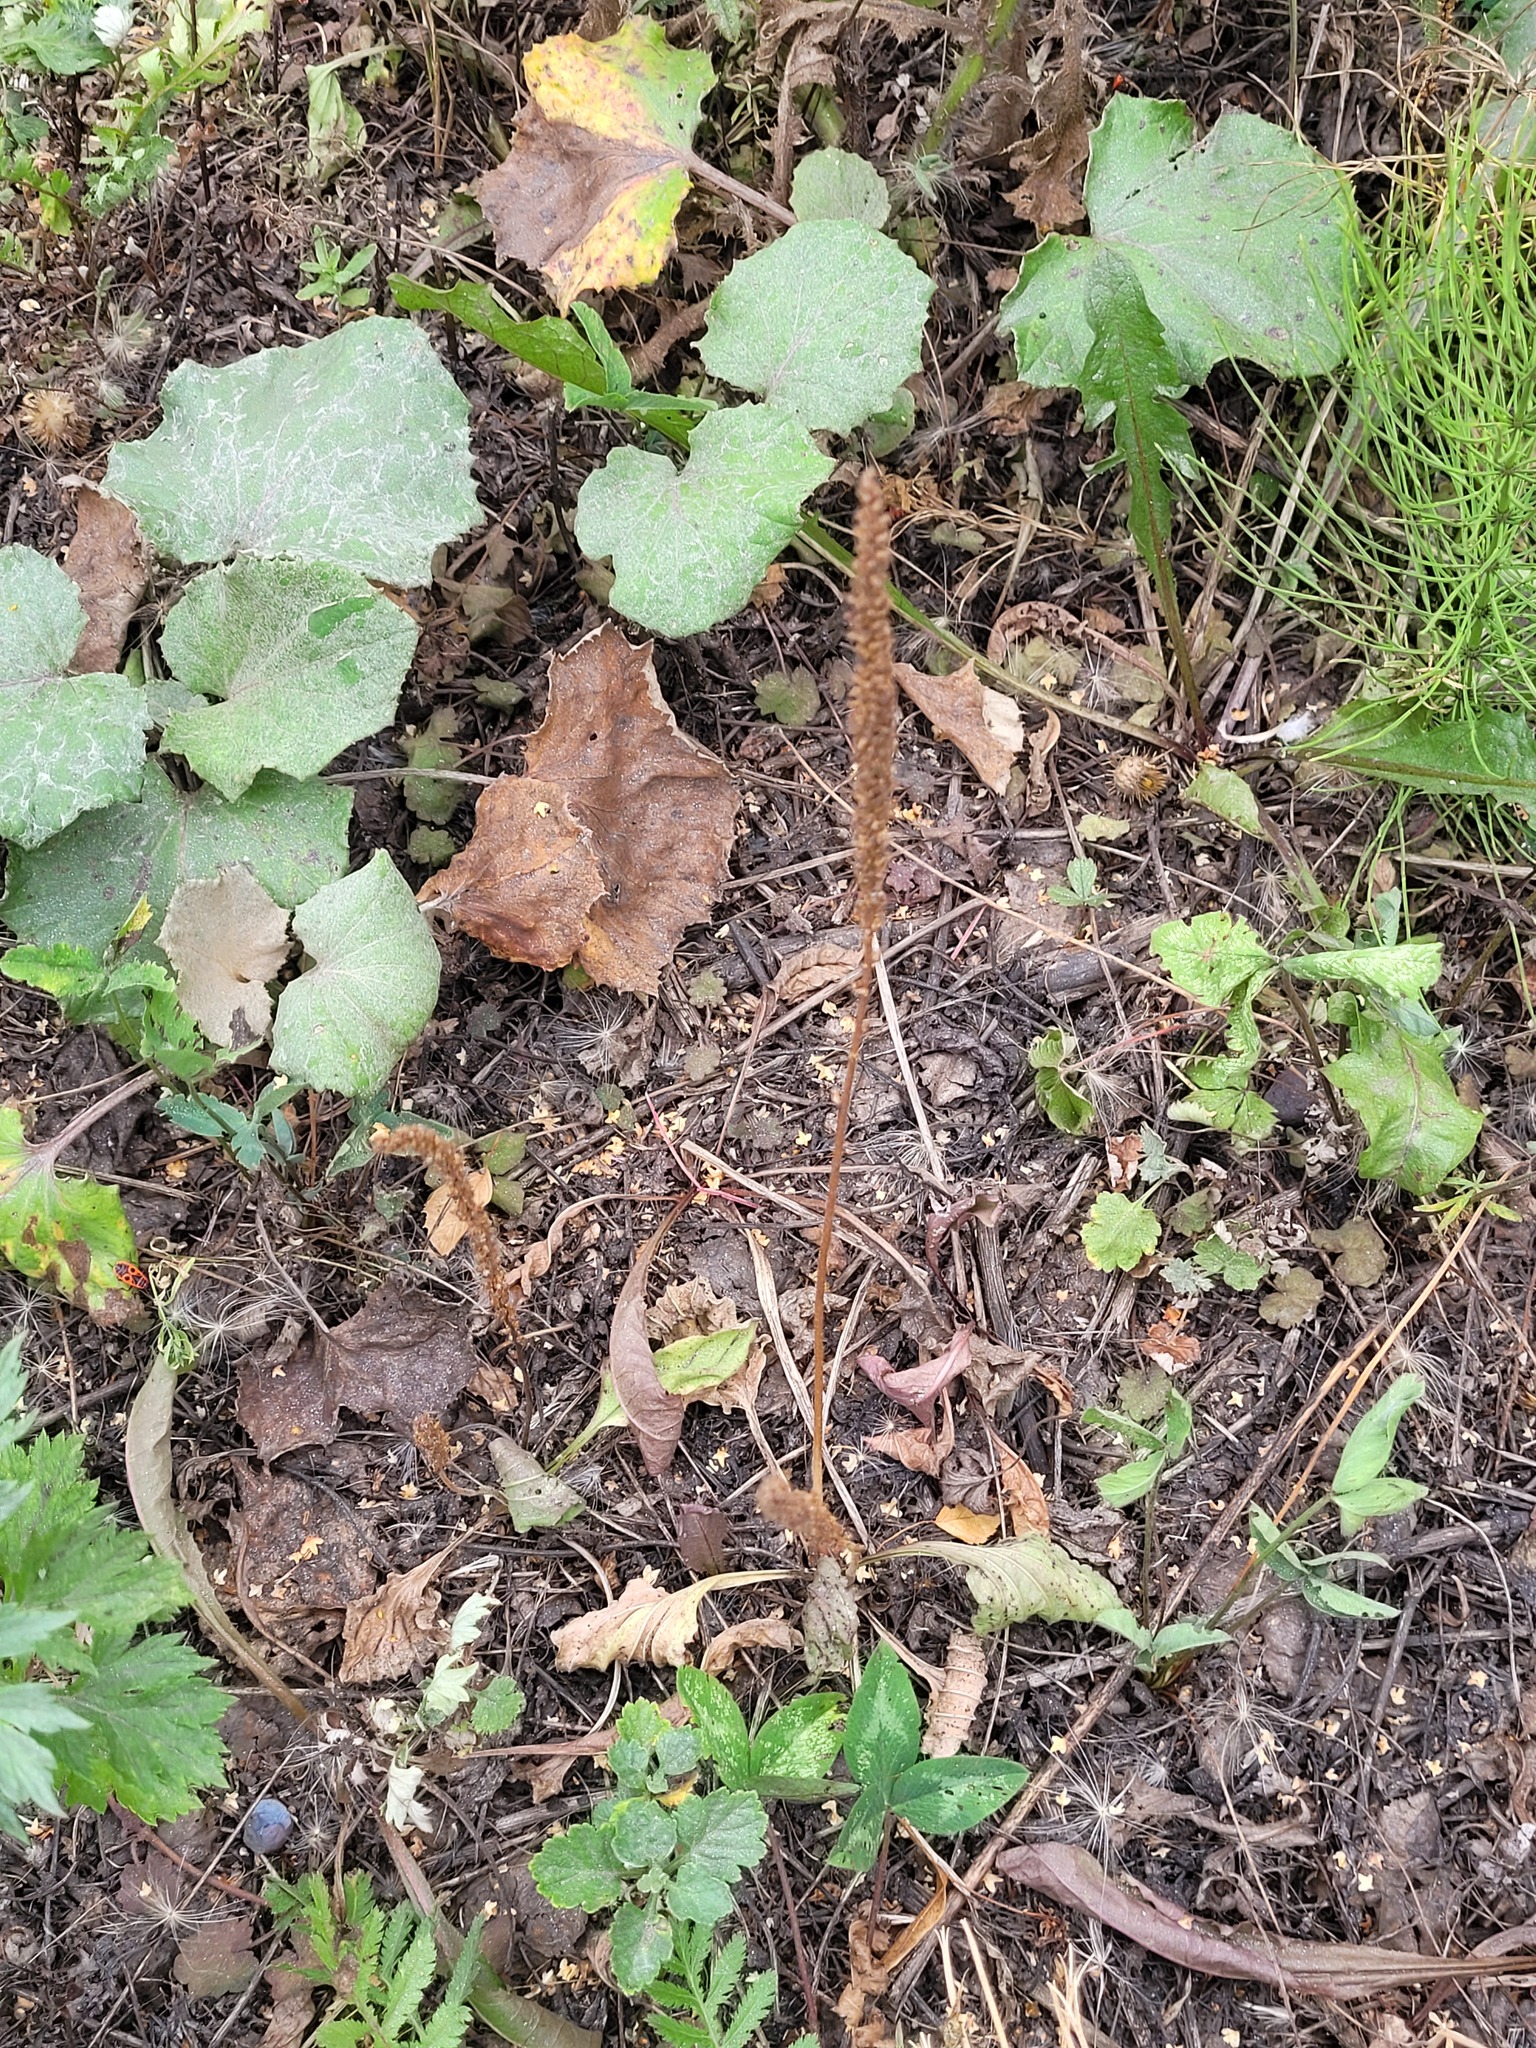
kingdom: Plantae
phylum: Tracheophyta
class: Magnoliopsida
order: Lamiales
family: Plantaginaceae
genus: Plantago
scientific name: Plantago major
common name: Common plantain
